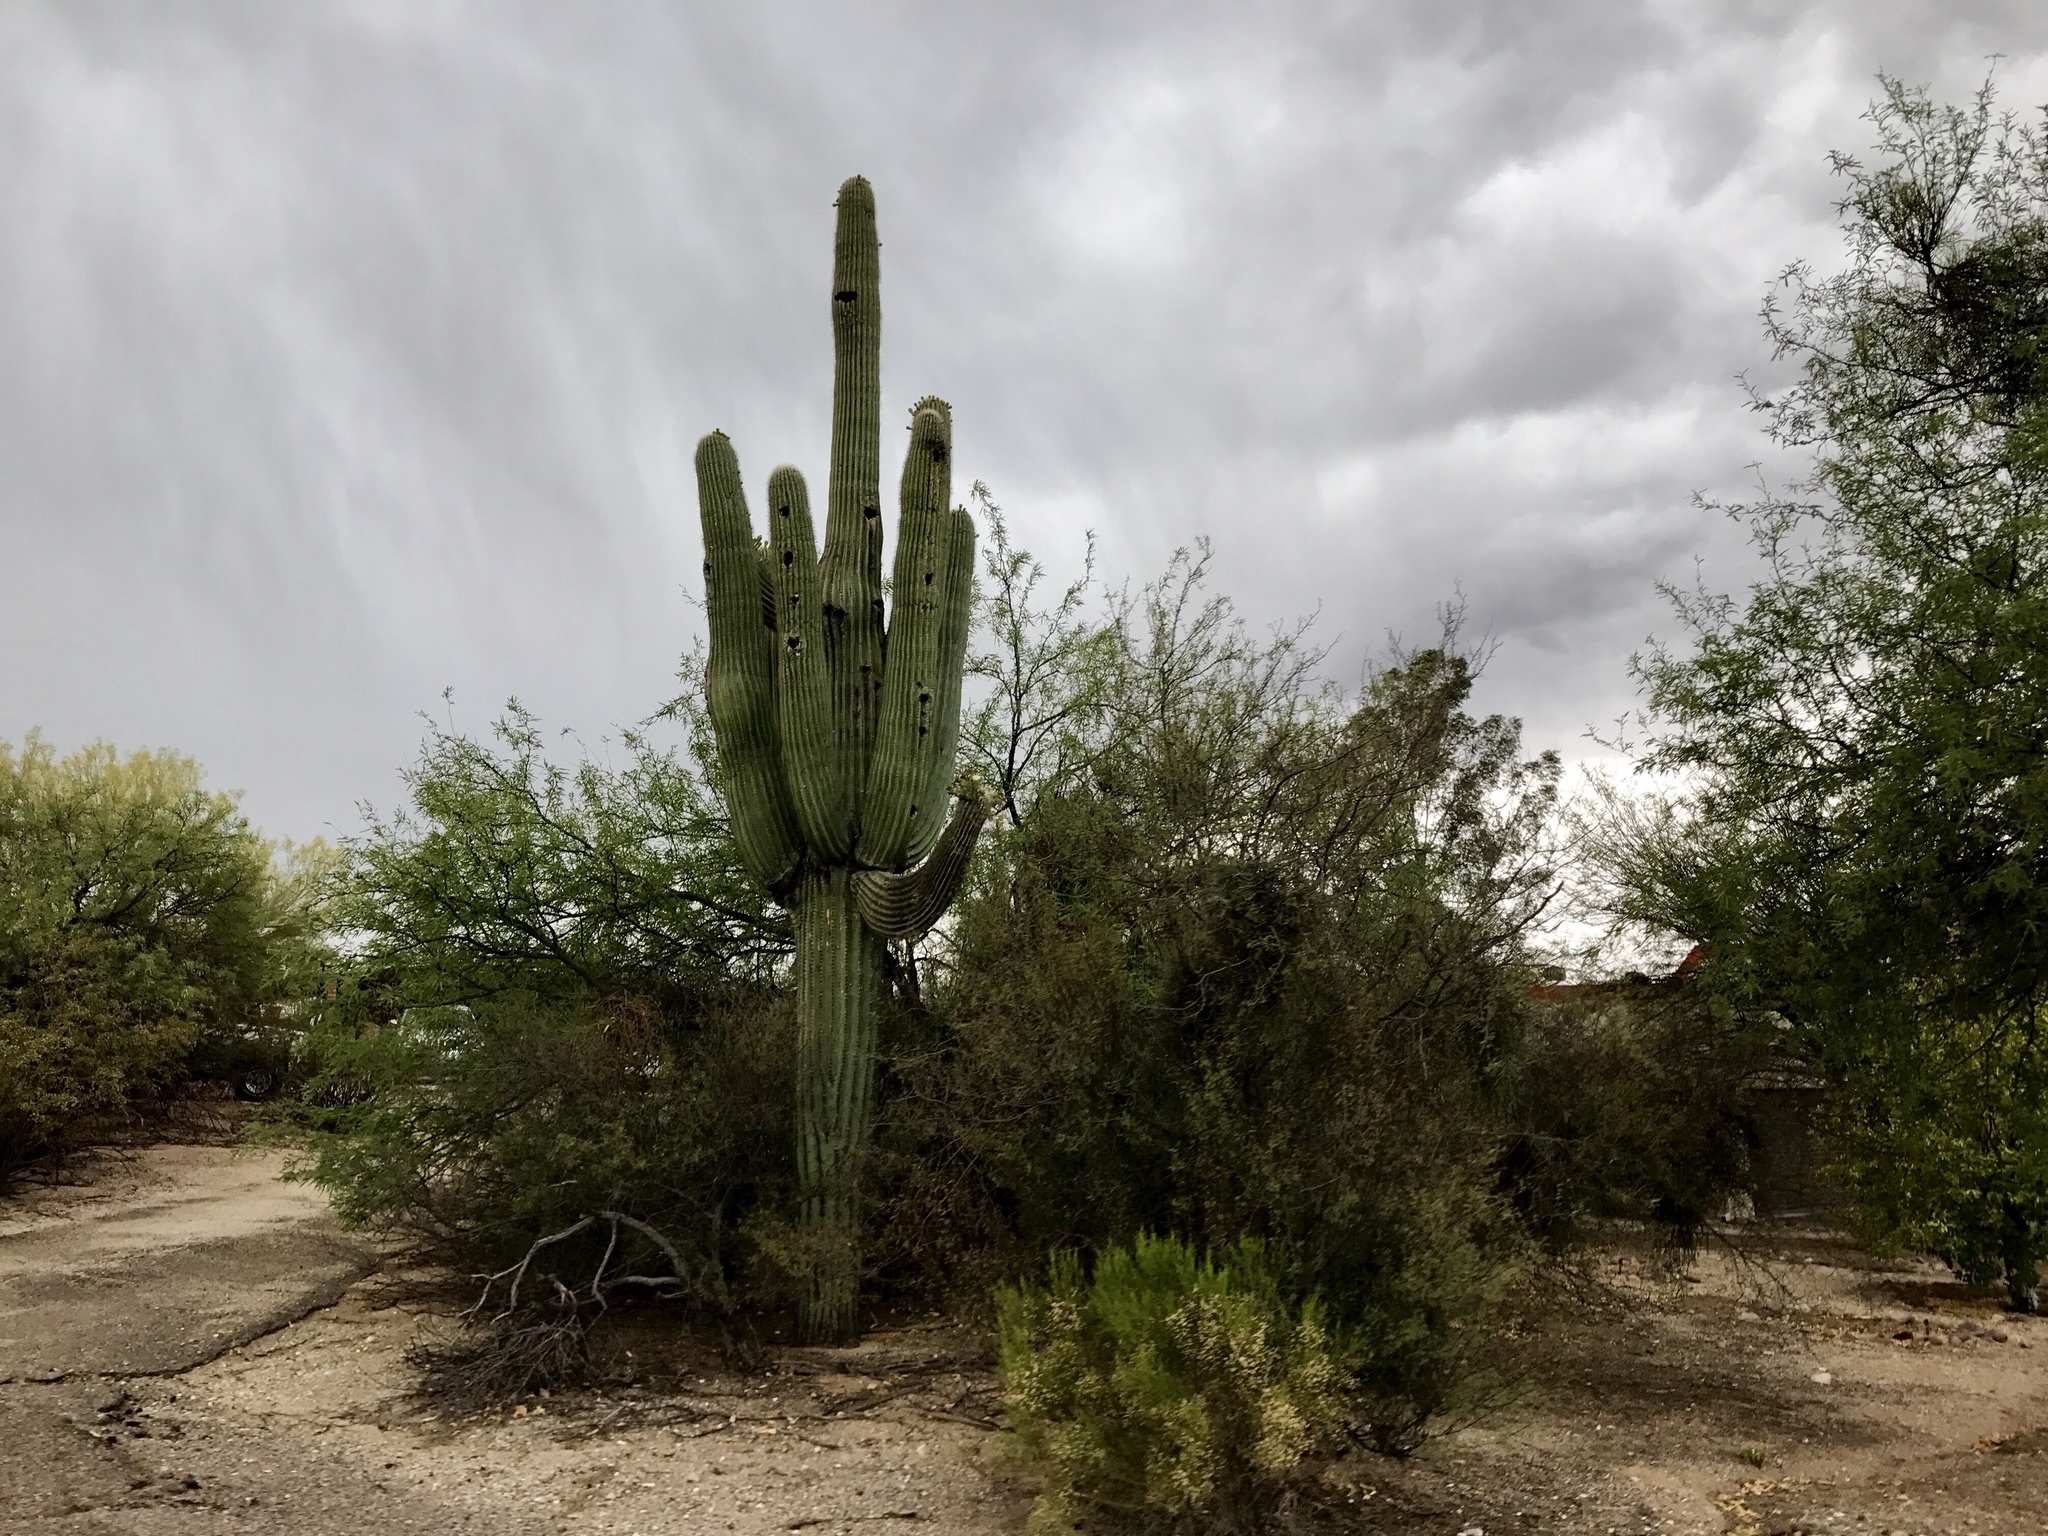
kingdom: Plantae
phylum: Tracheophyta
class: Magnoliopsida
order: Caryophyllales
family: Cactaceae
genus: Carnegiea
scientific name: Carnegiea gigantea
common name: Saguaro
